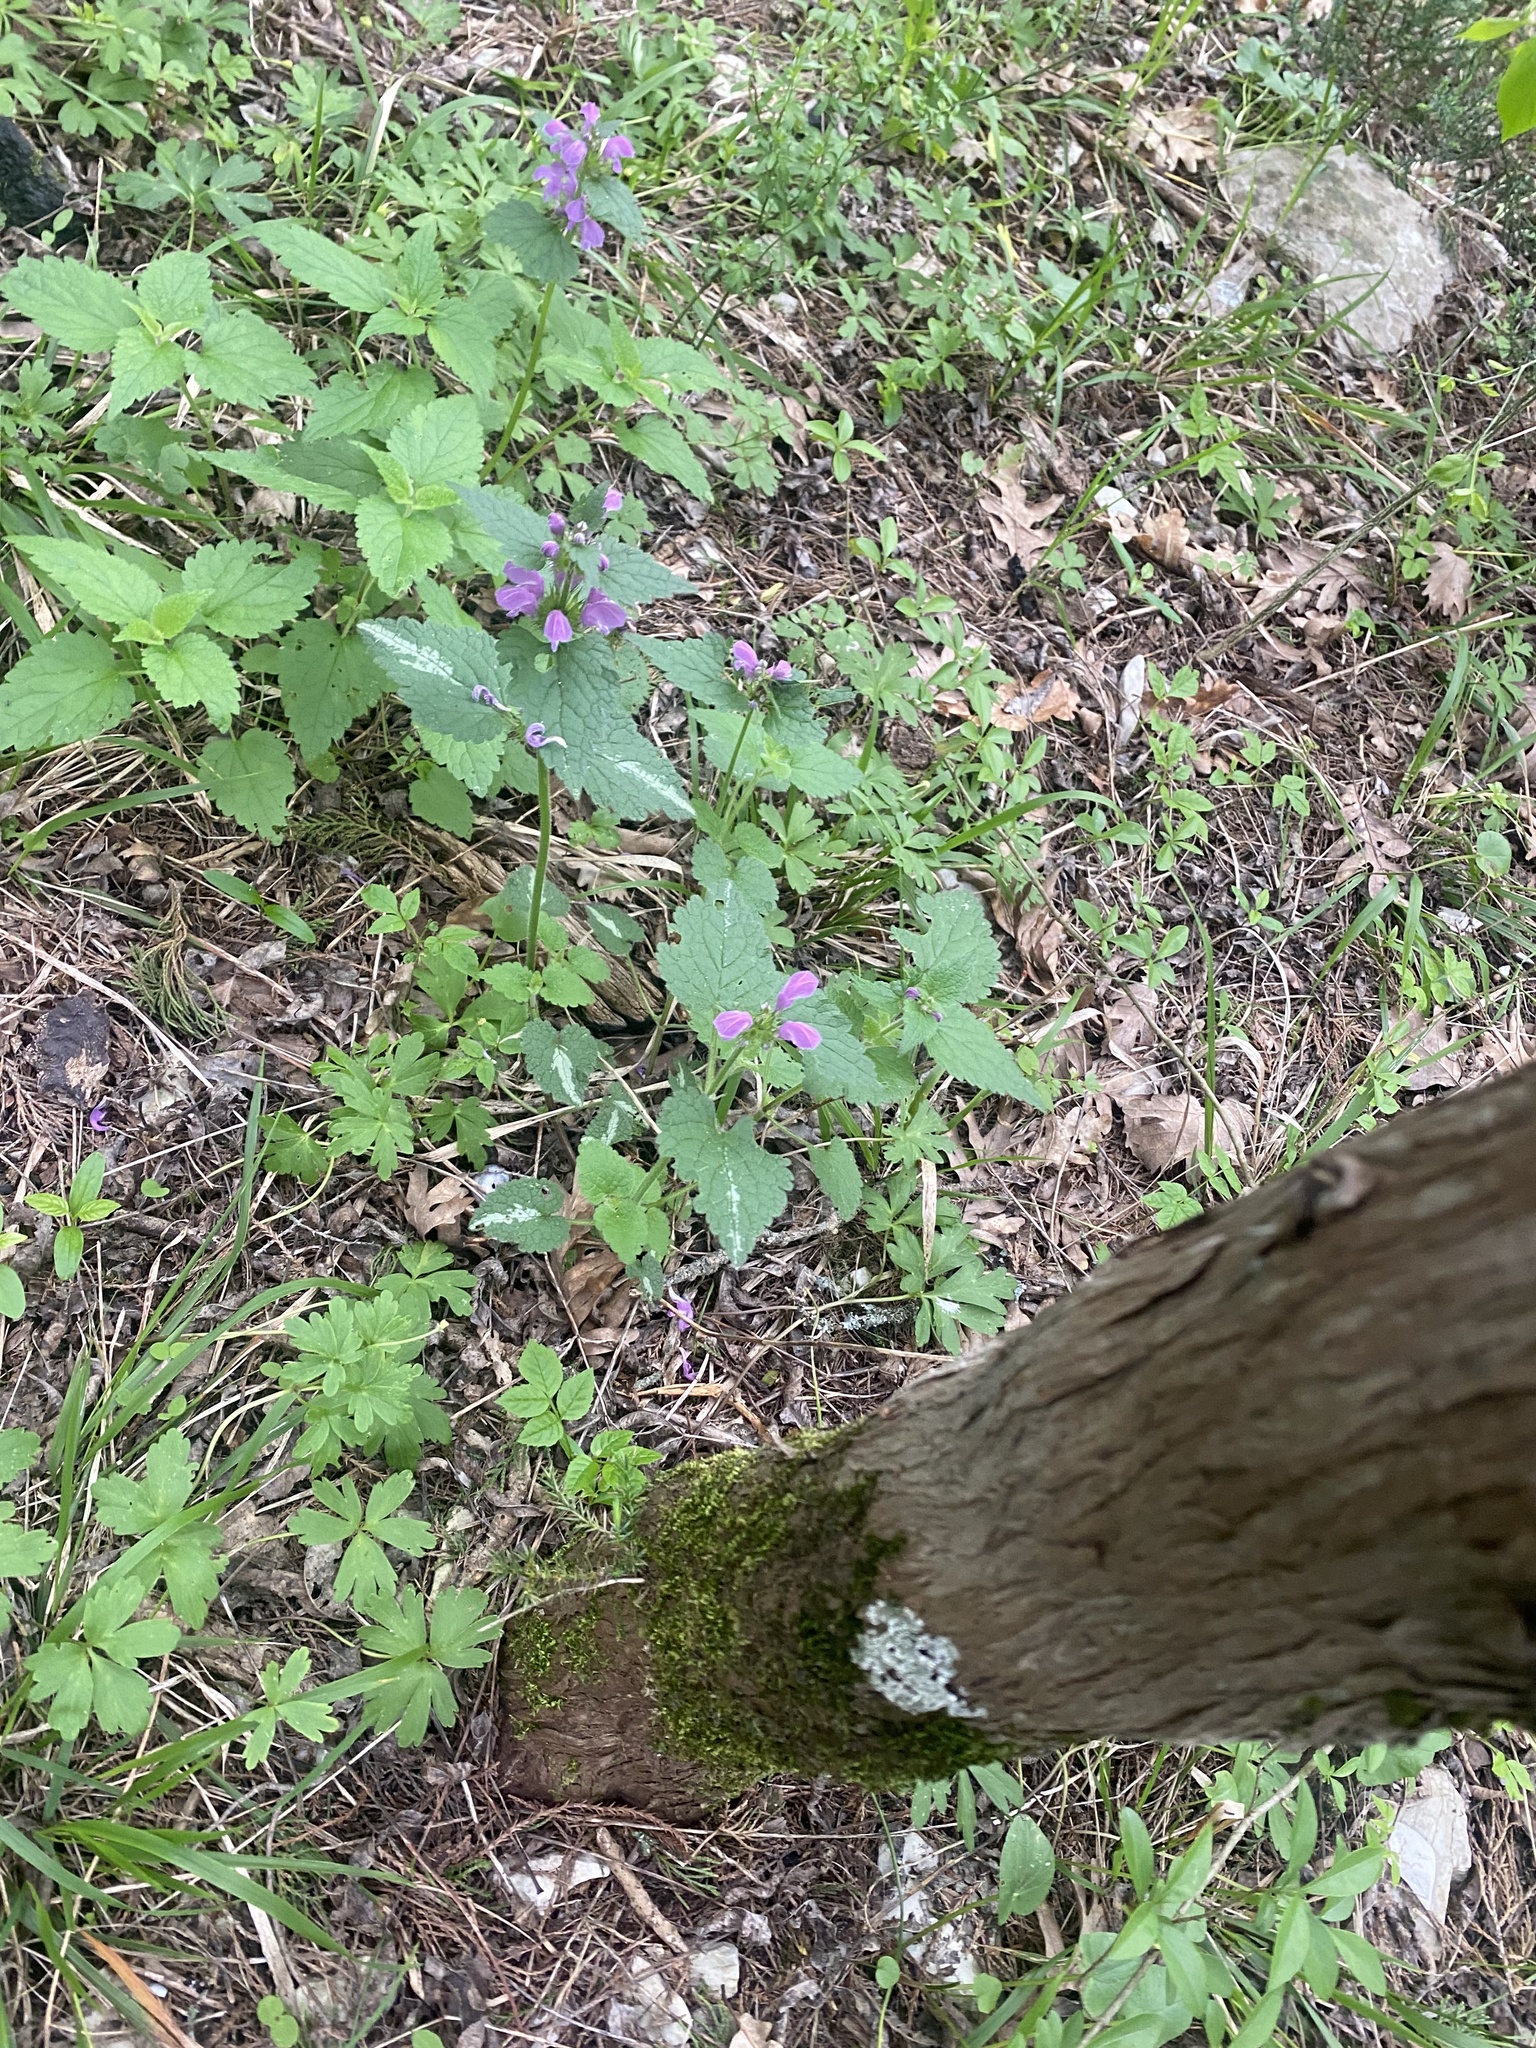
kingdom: Plantae
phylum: Tracheophyta
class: Magnoliopsida
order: Lamiales
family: Lamiaceae
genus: Lamium
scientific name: Lamium maculatum
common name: Spotted dead-nettle
